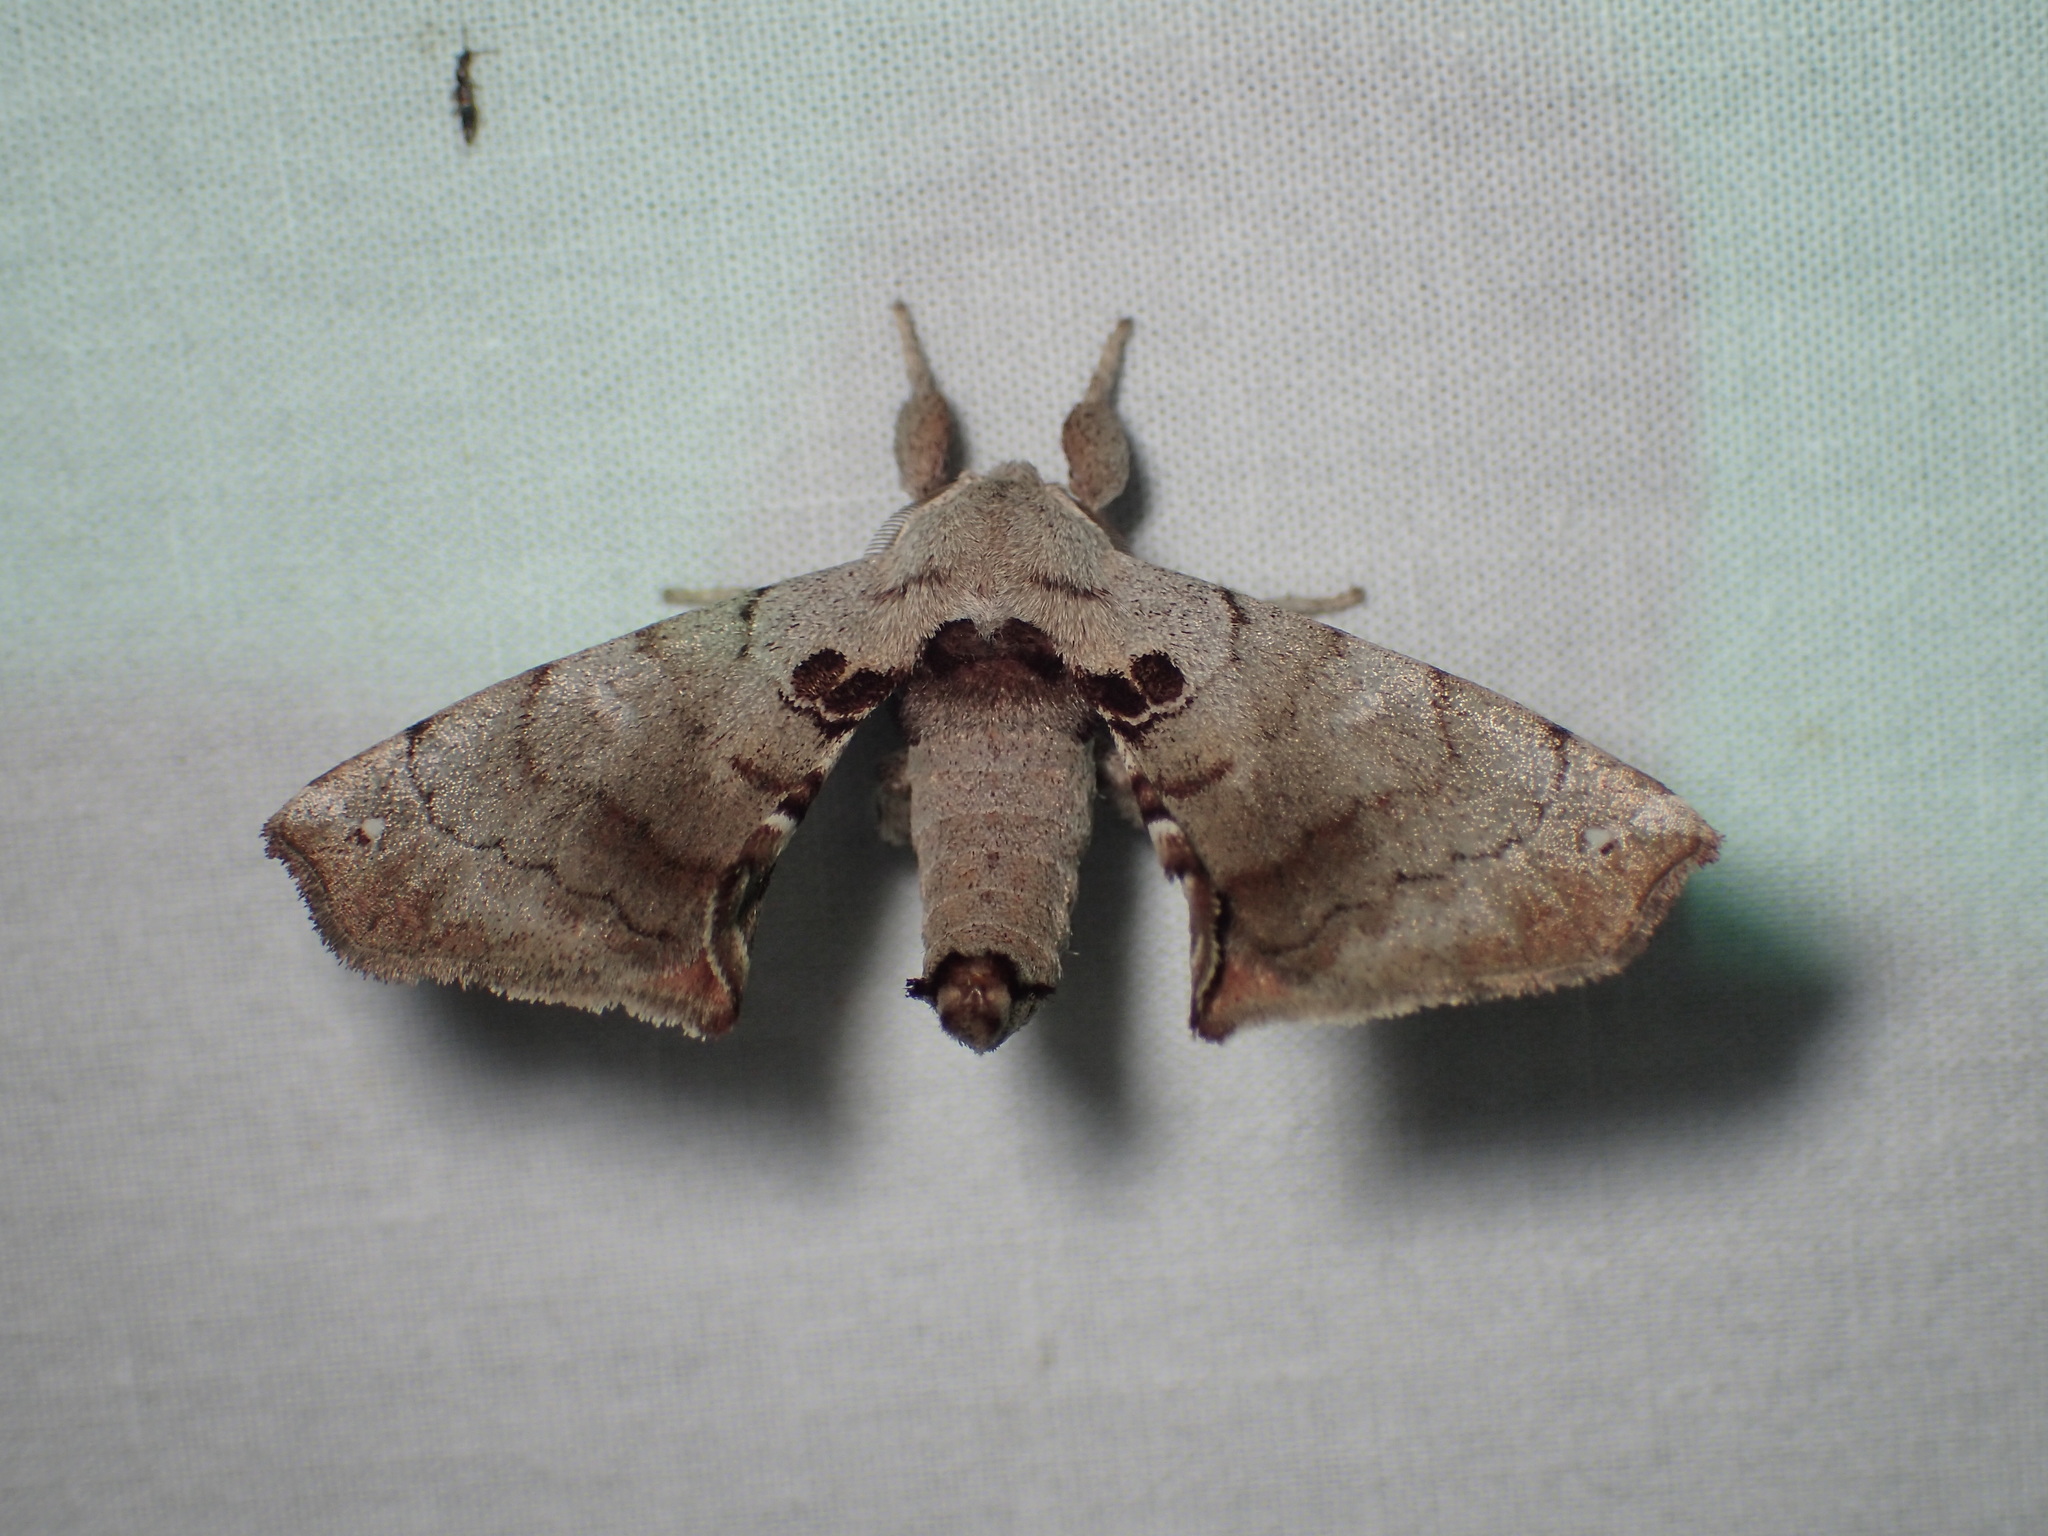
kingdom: Animalia
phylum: Arthropoda
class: Insecta
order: Lepidoptera
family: Apatelodidae
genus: Hygrochroa
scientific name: Hygrochroa Apatelodes torrefacta
